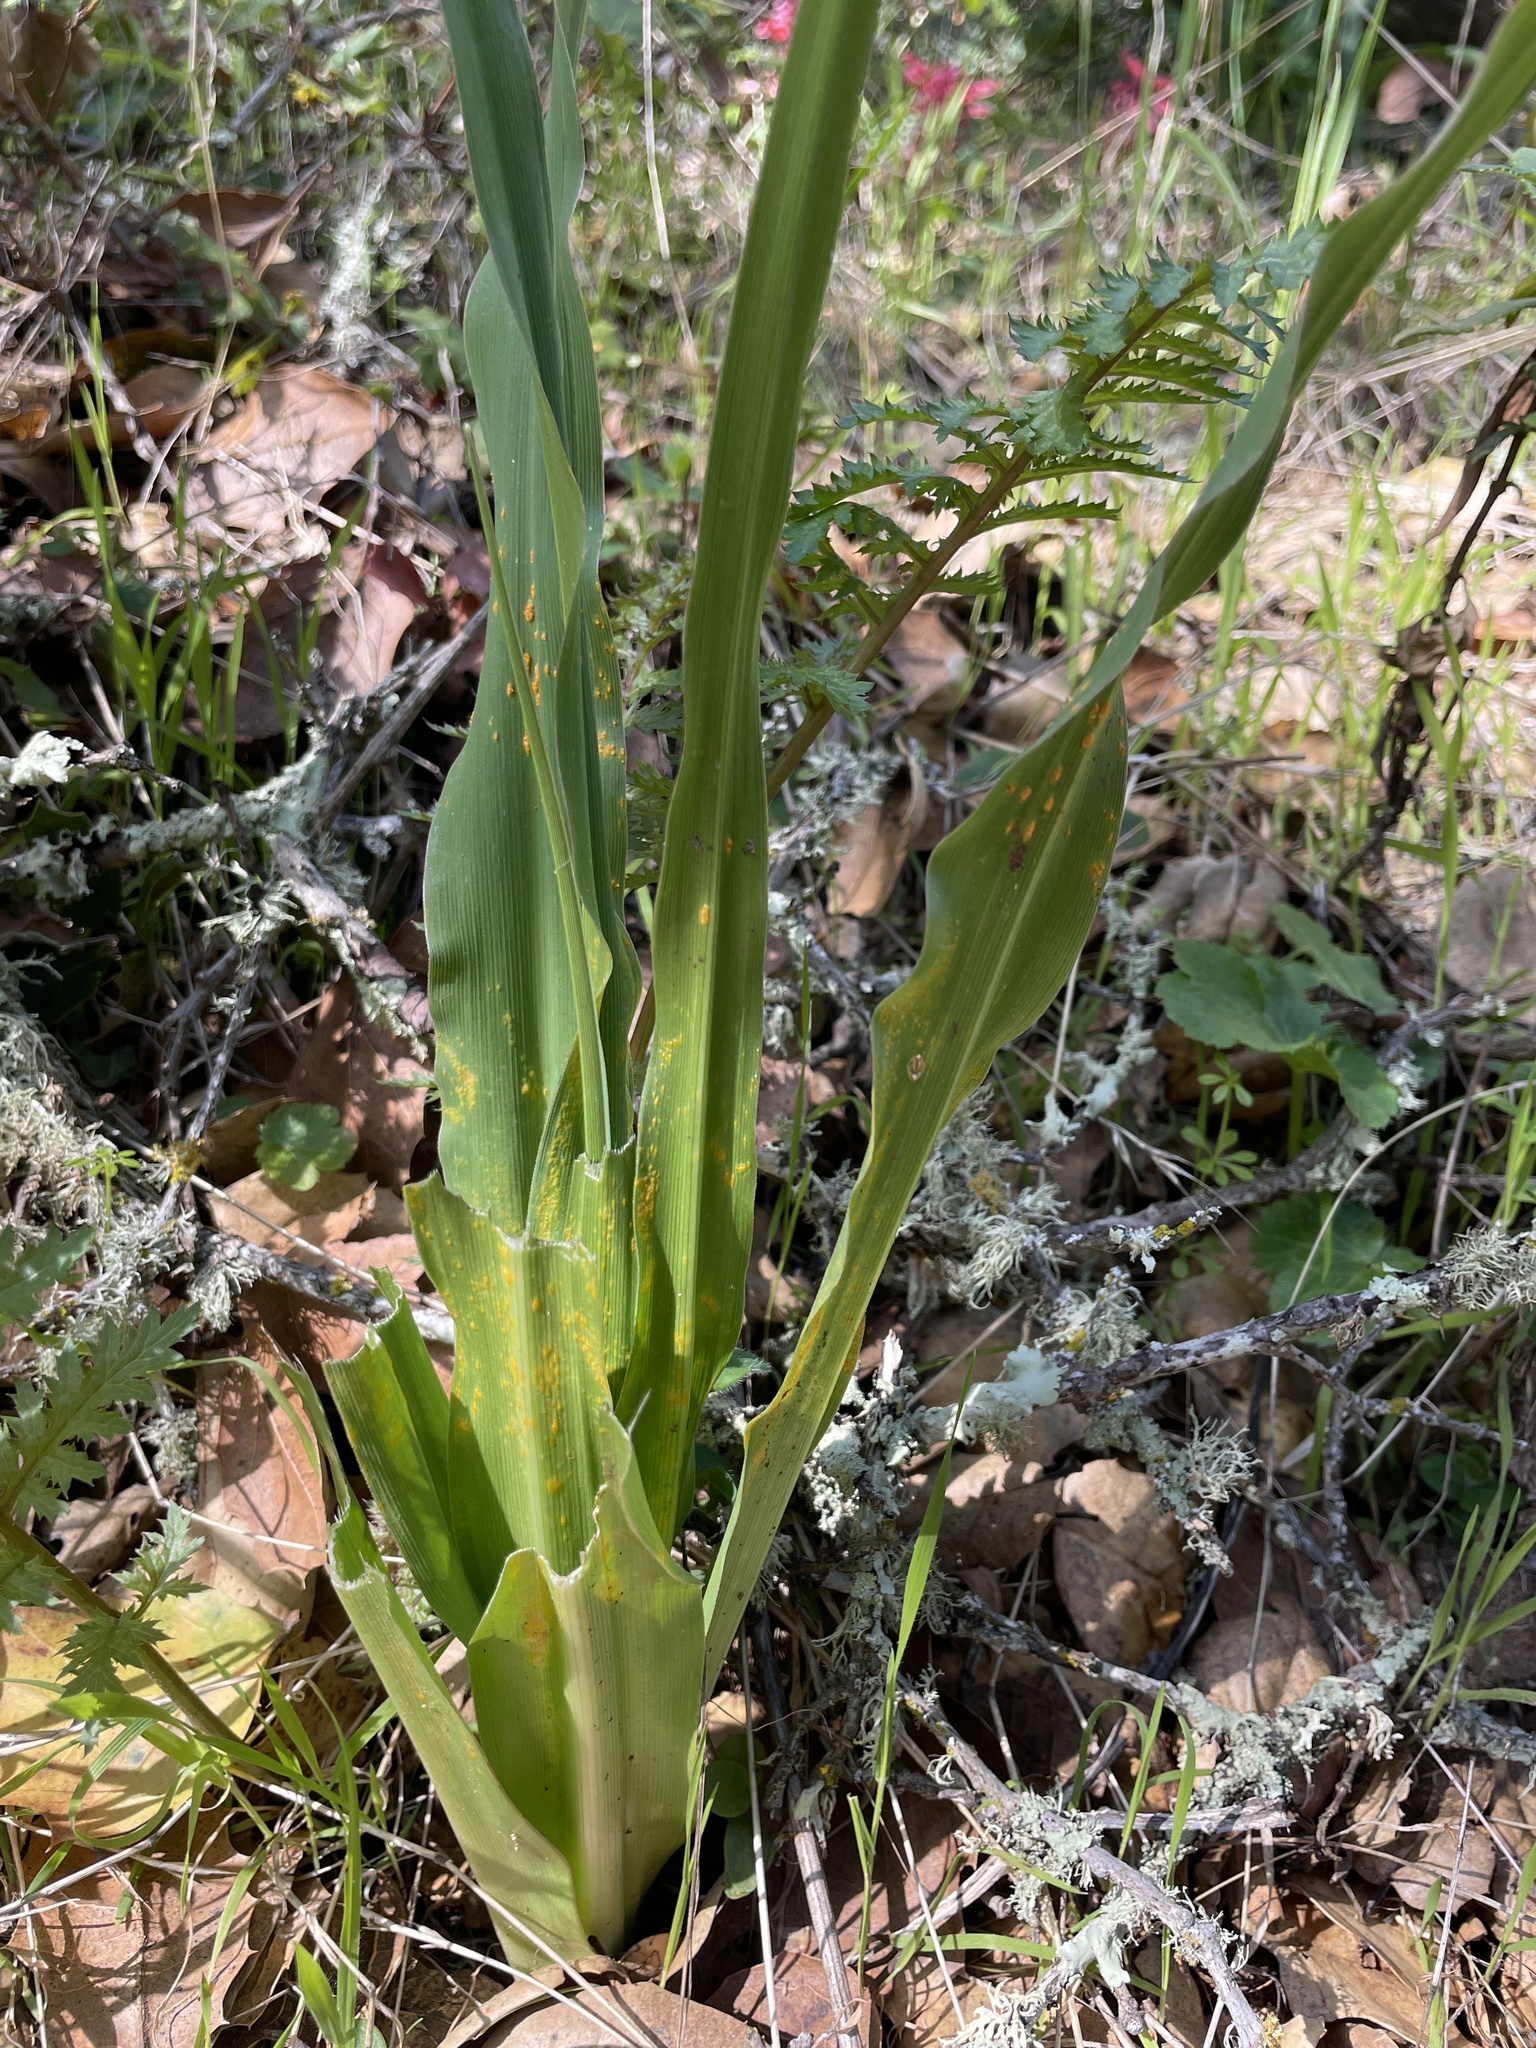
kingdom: Plantae
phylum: Tracheophyta
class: Liliopsida
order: Asparagales
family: Asparagaceae
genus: Chlorogalum
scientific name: Chlorogalum pomeridianum
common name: Amole
